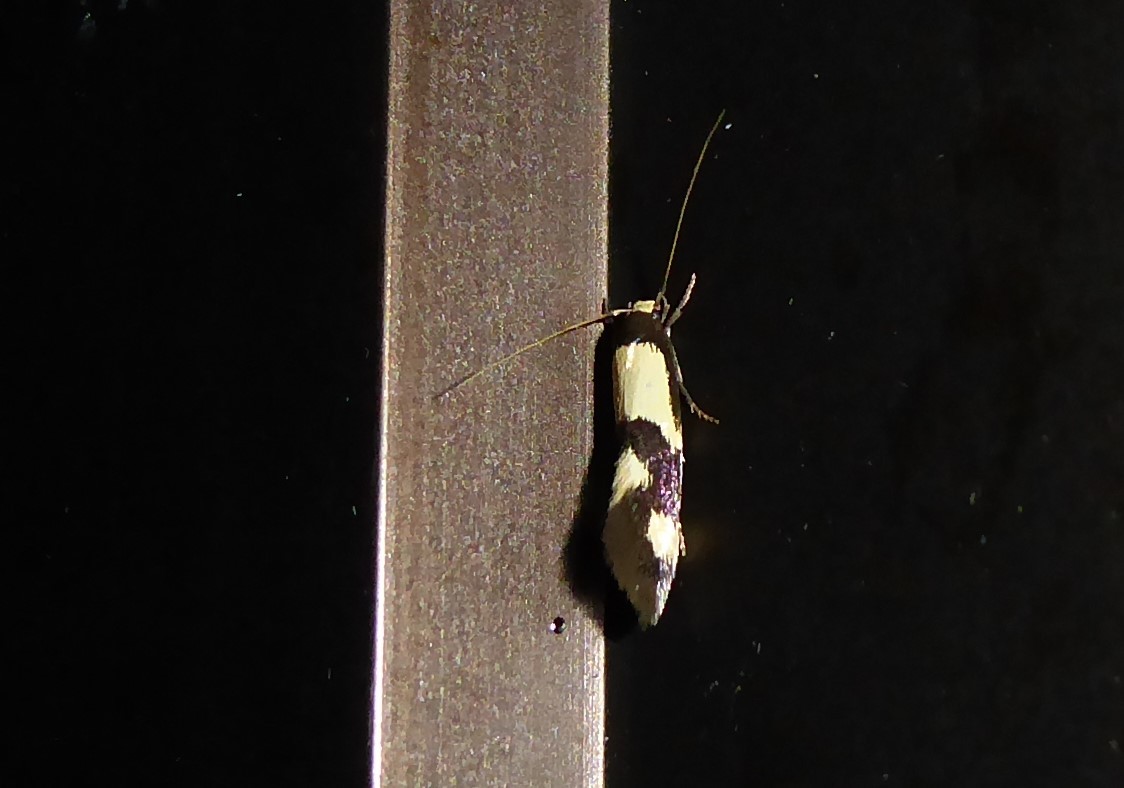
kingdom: Animalia
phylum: Arthropoda
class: Insecta
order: Lepidoptera
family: Tineidae
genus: Opogona
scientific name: Opogona comptella
